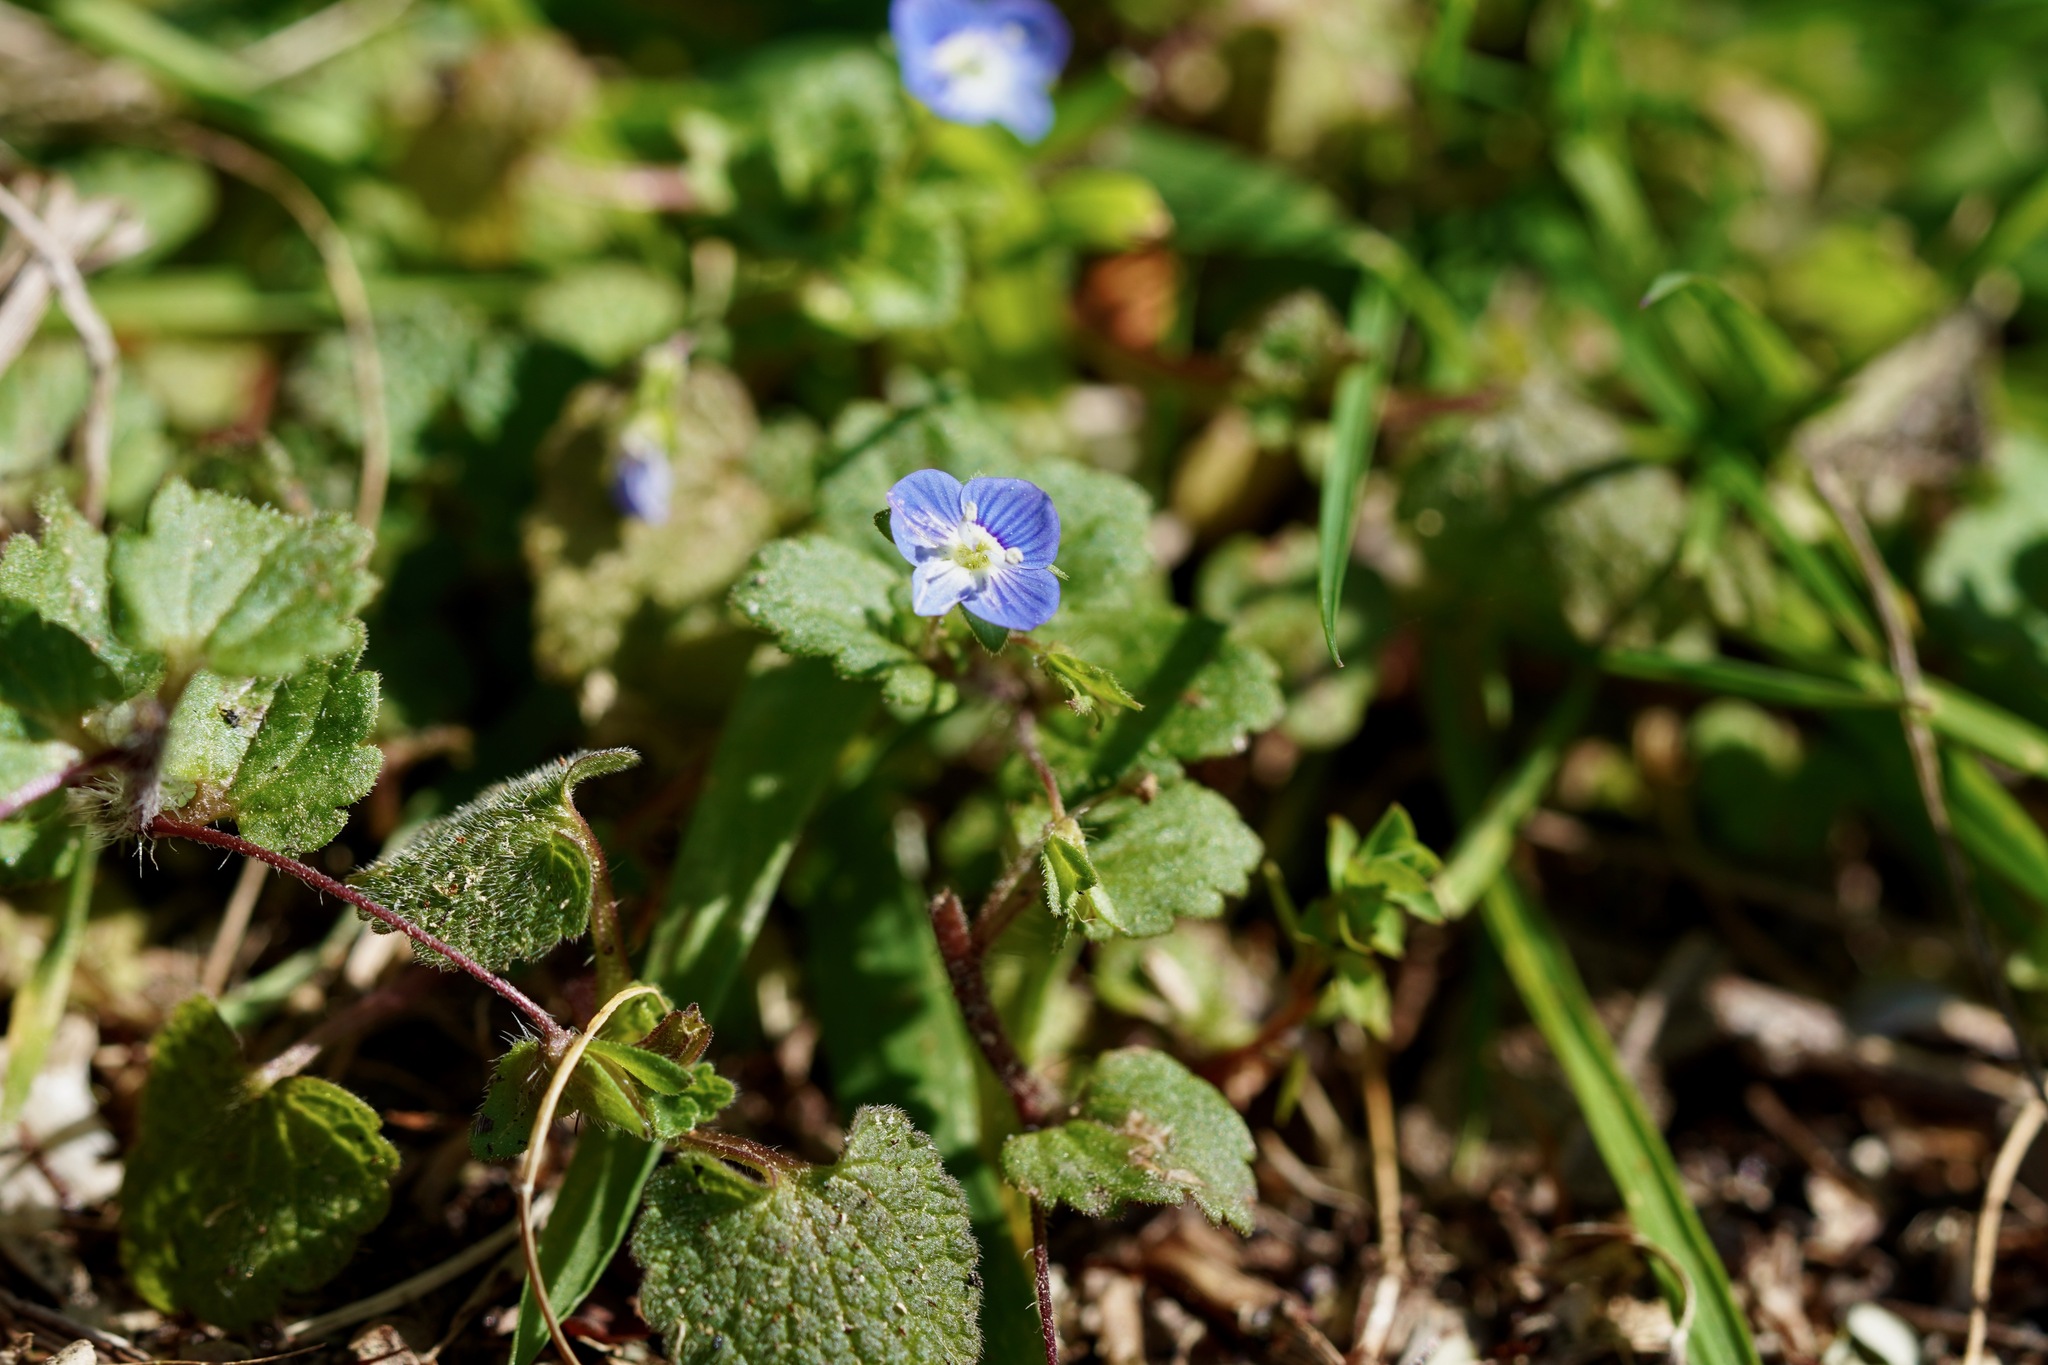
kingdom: Plantae
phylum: Tracheophyta
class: Magnoliopsida
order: Lamiales
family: Plantaginaceae
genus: Veronica
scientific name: Veronica persica
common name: Common field-speedwell
